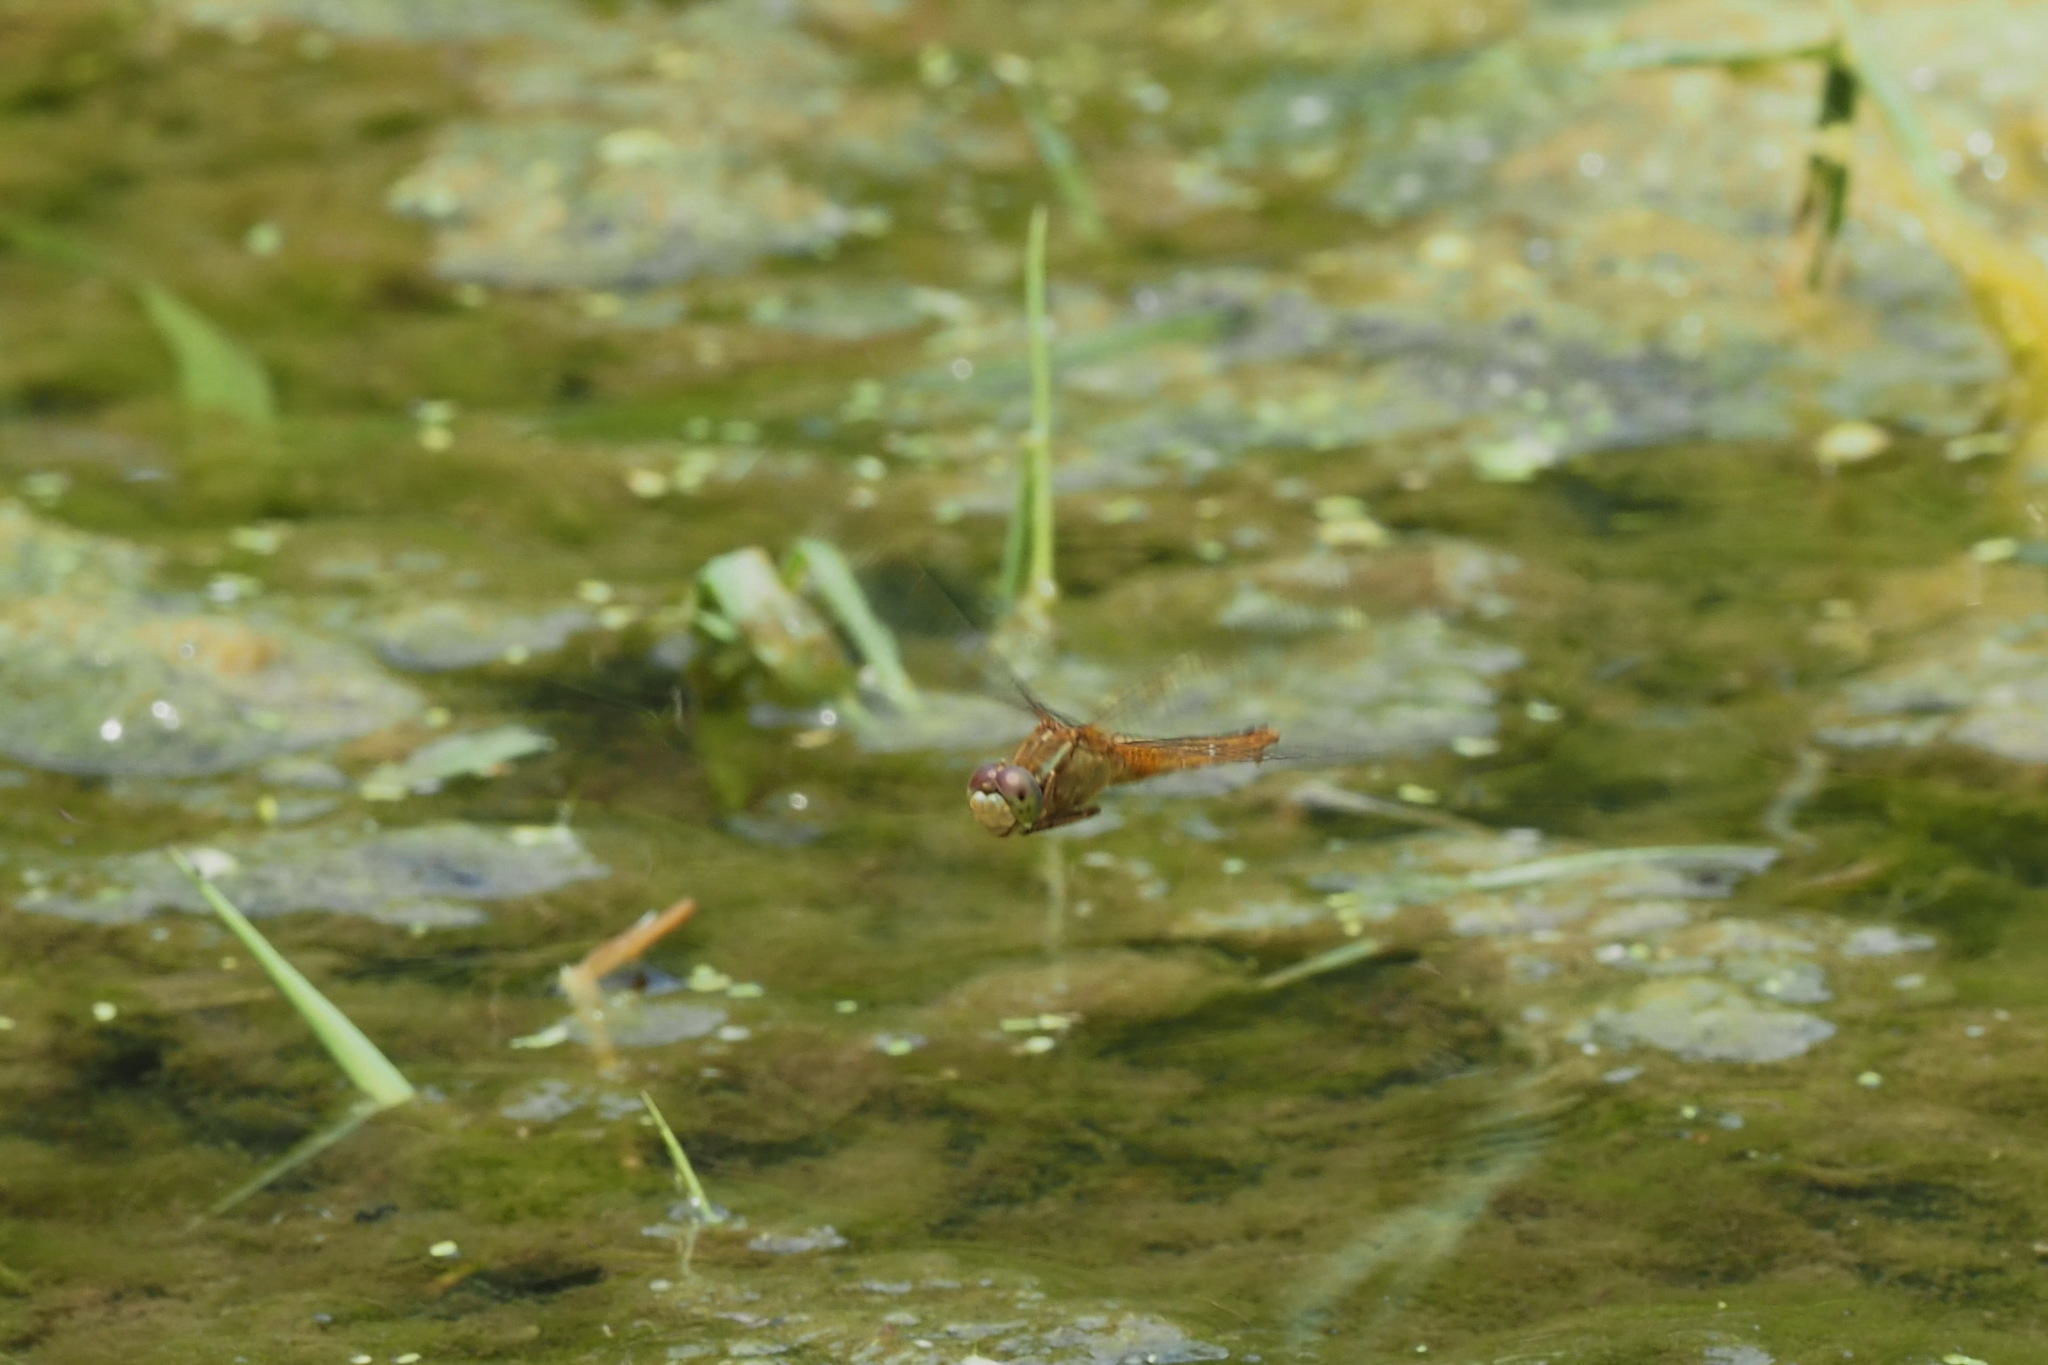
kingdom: Animalia
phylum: Arthropoda
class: Insecta
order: Odonata
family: Libellulidae
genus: Crocothemis
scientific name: Crocothemis servilia
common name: Scarlet skimmer
